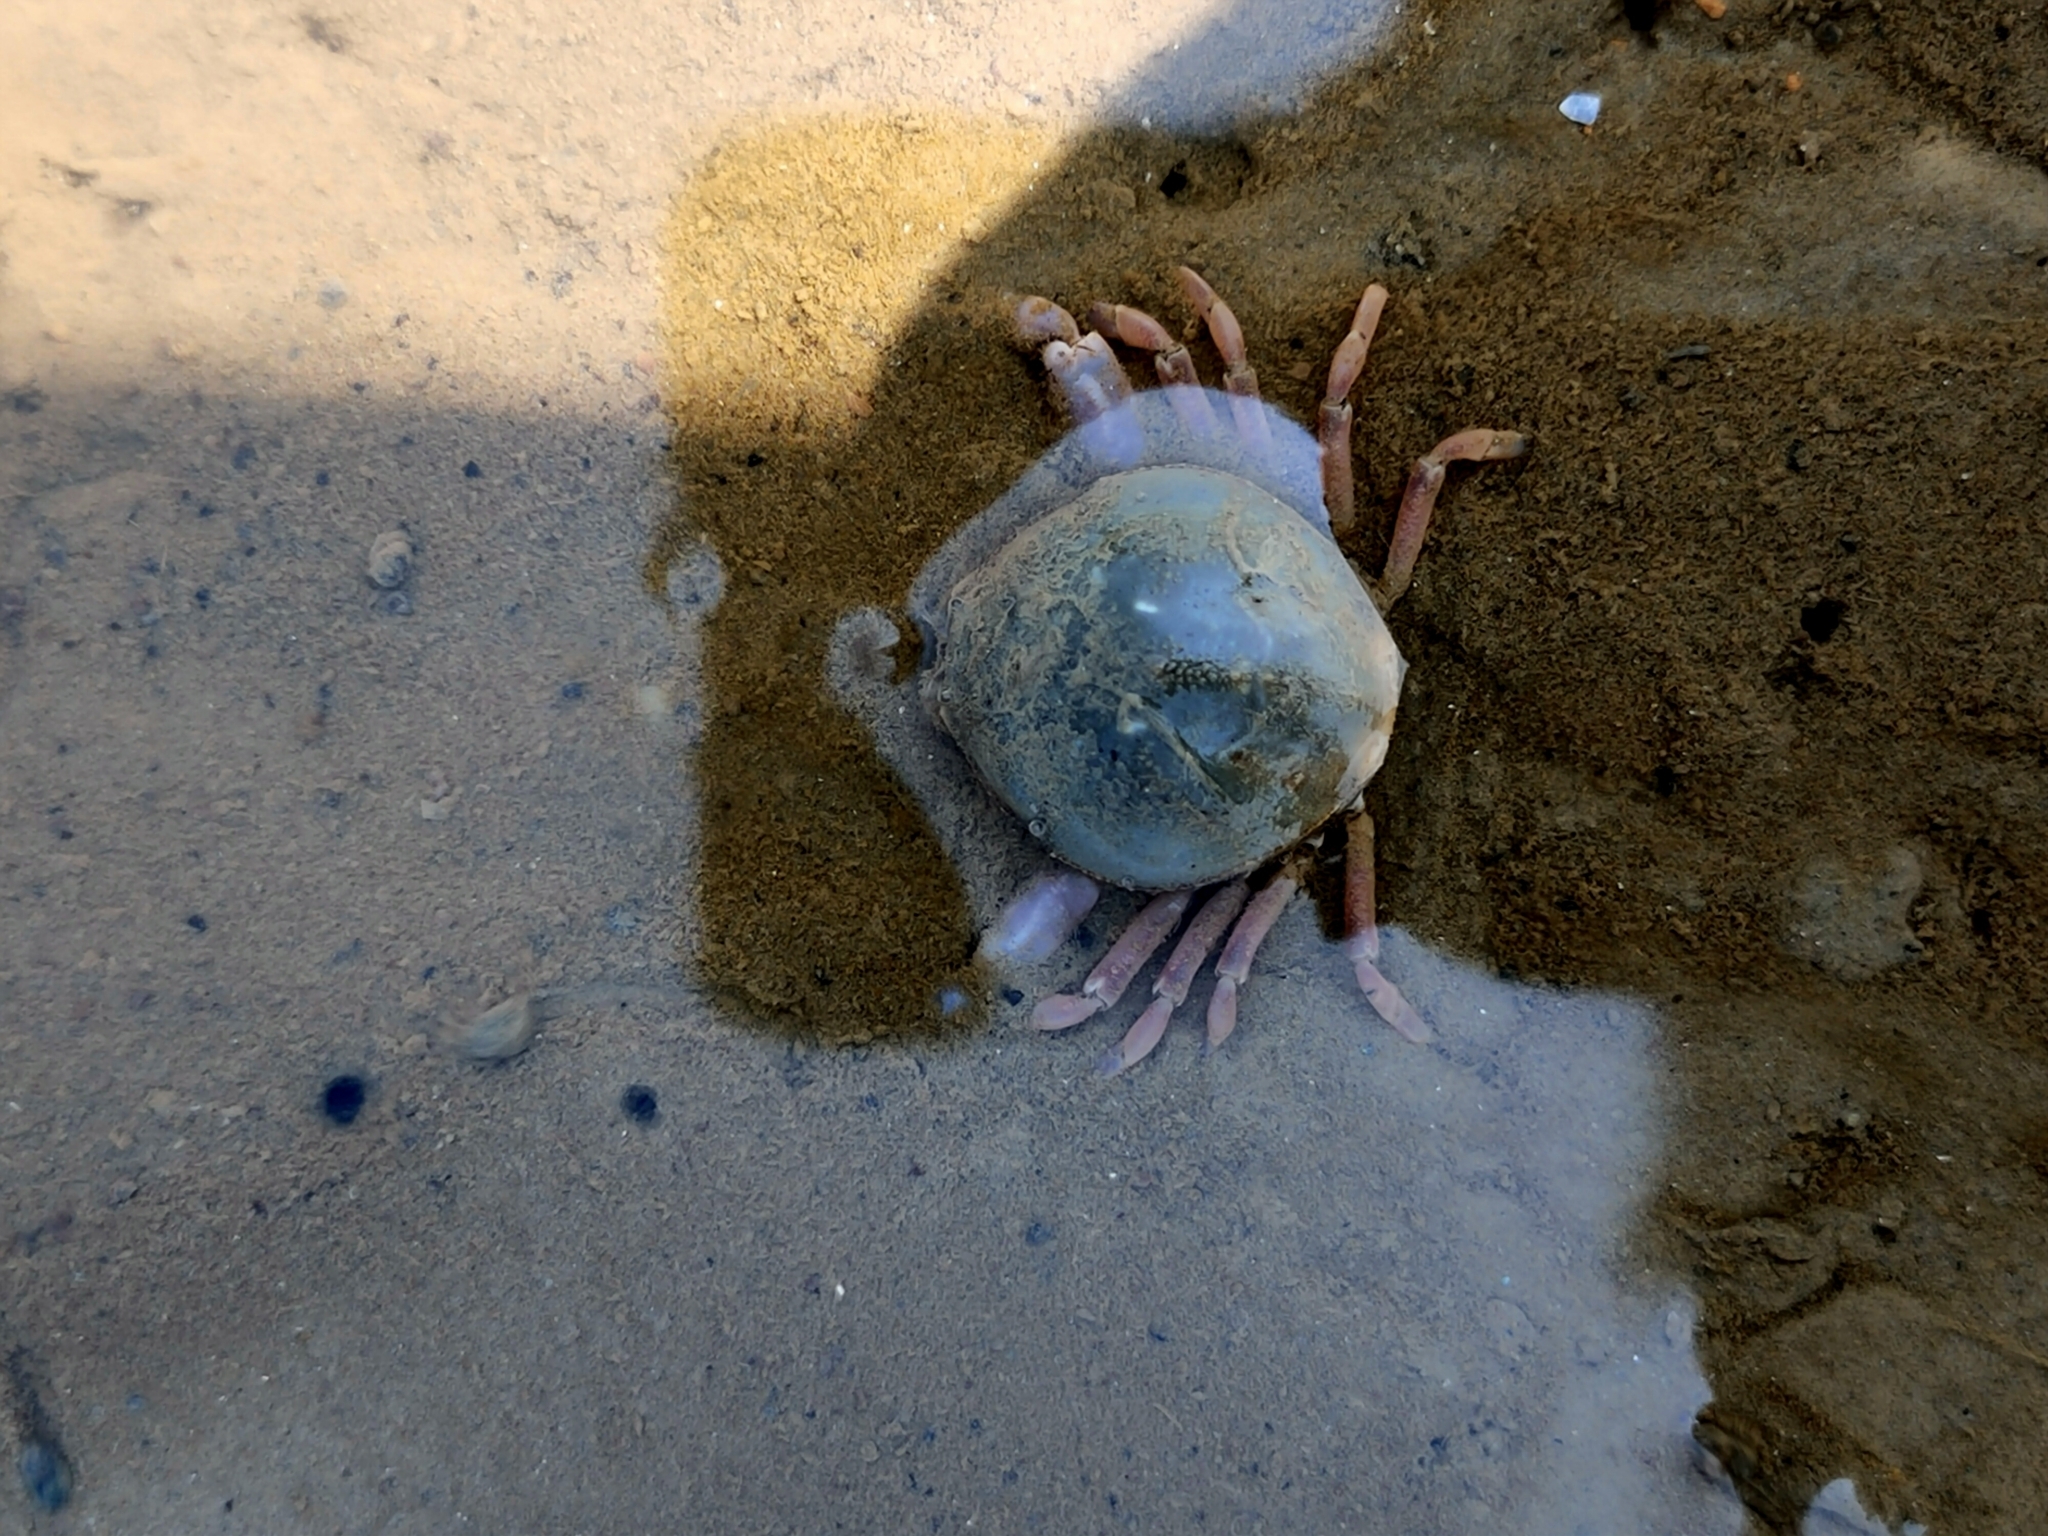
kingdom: Animalia
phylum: Arthropoda
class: Malacostraca
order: Decapoda
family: Leucosiidae
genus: Pyrhila
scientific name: Pyrhila pisum
